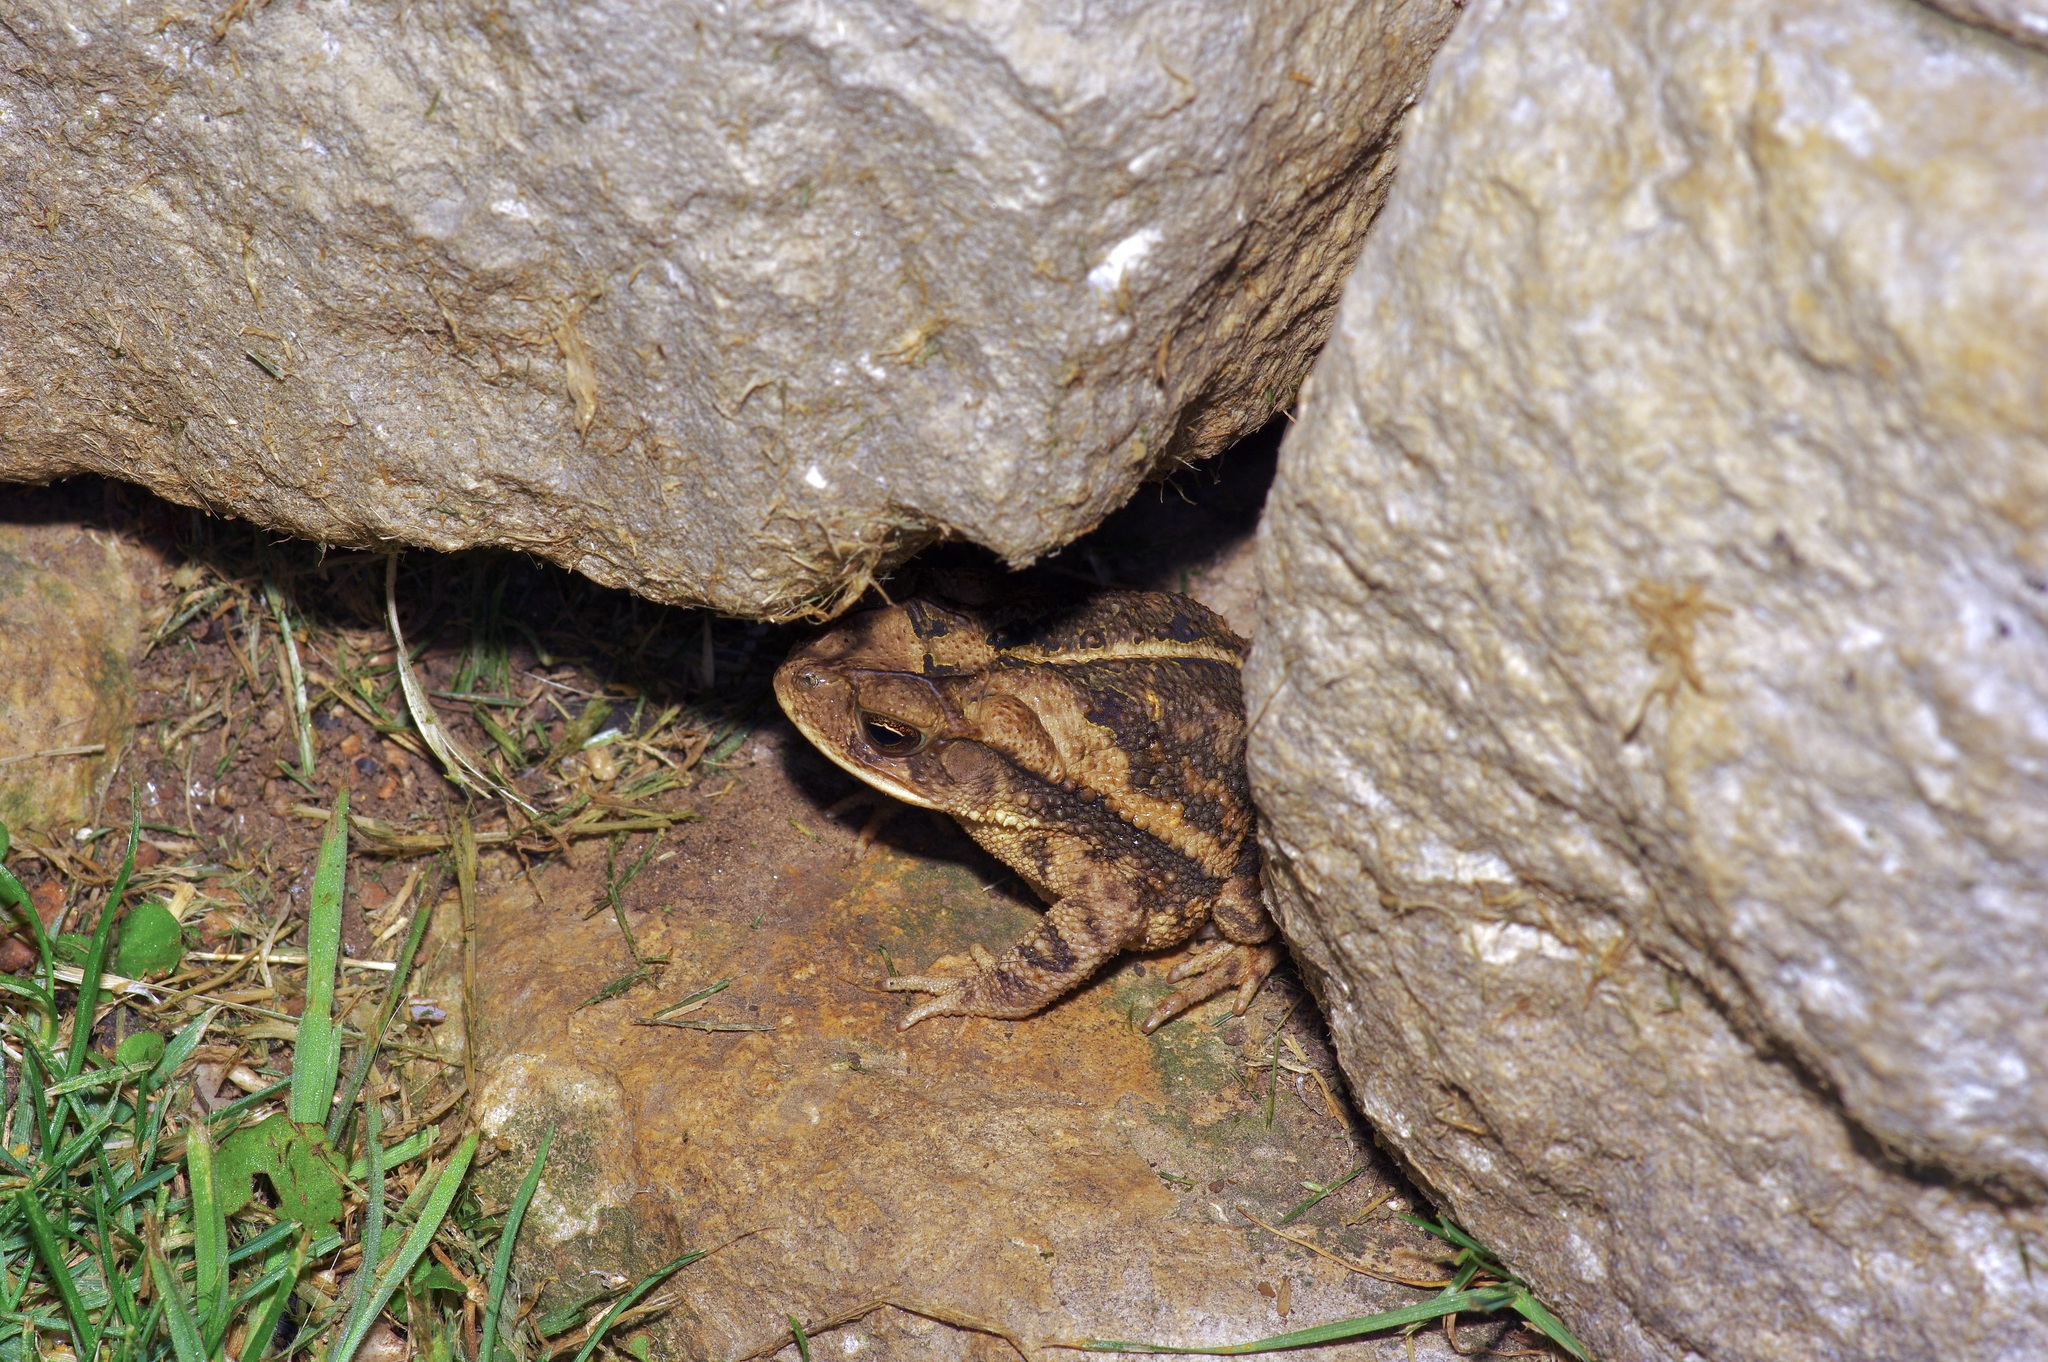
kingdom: Animalia
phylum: Chordata
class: Amphibia
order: Anura
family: Bufonidae
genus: Incilius
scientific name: Incilius nebulifer
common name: Gulf coast toad
